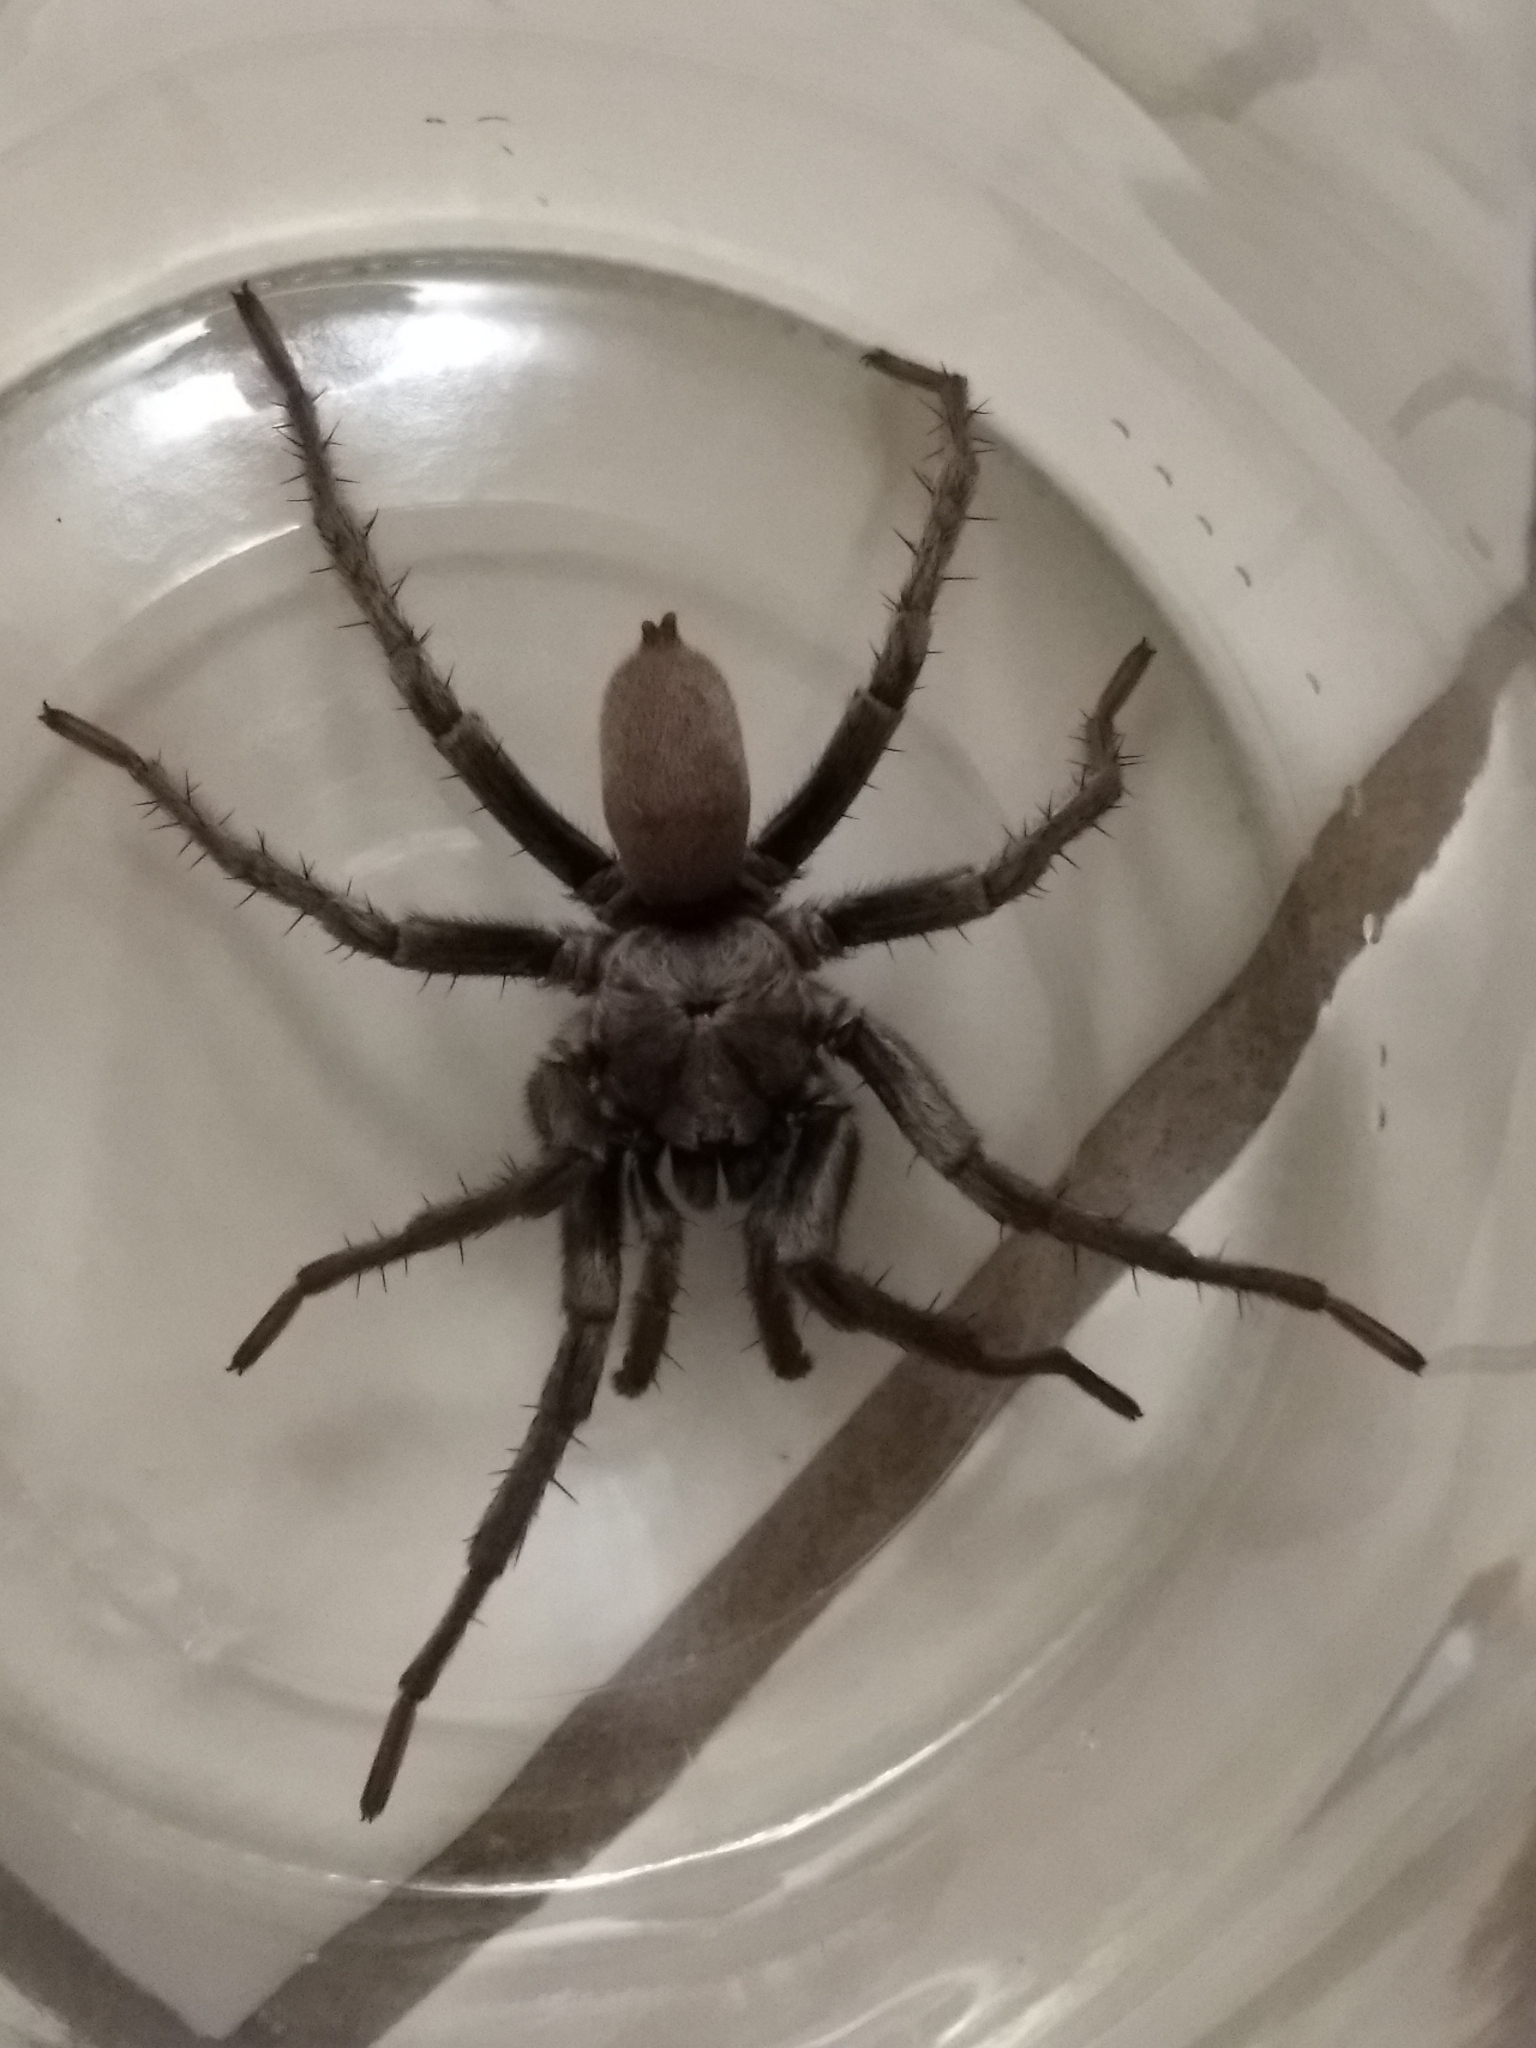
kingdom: Animalia
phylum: Arthropoda
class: Arachnida
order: Araneae
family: Nemesiidae
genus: Calisoga
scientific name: Calisoga longitarsis
